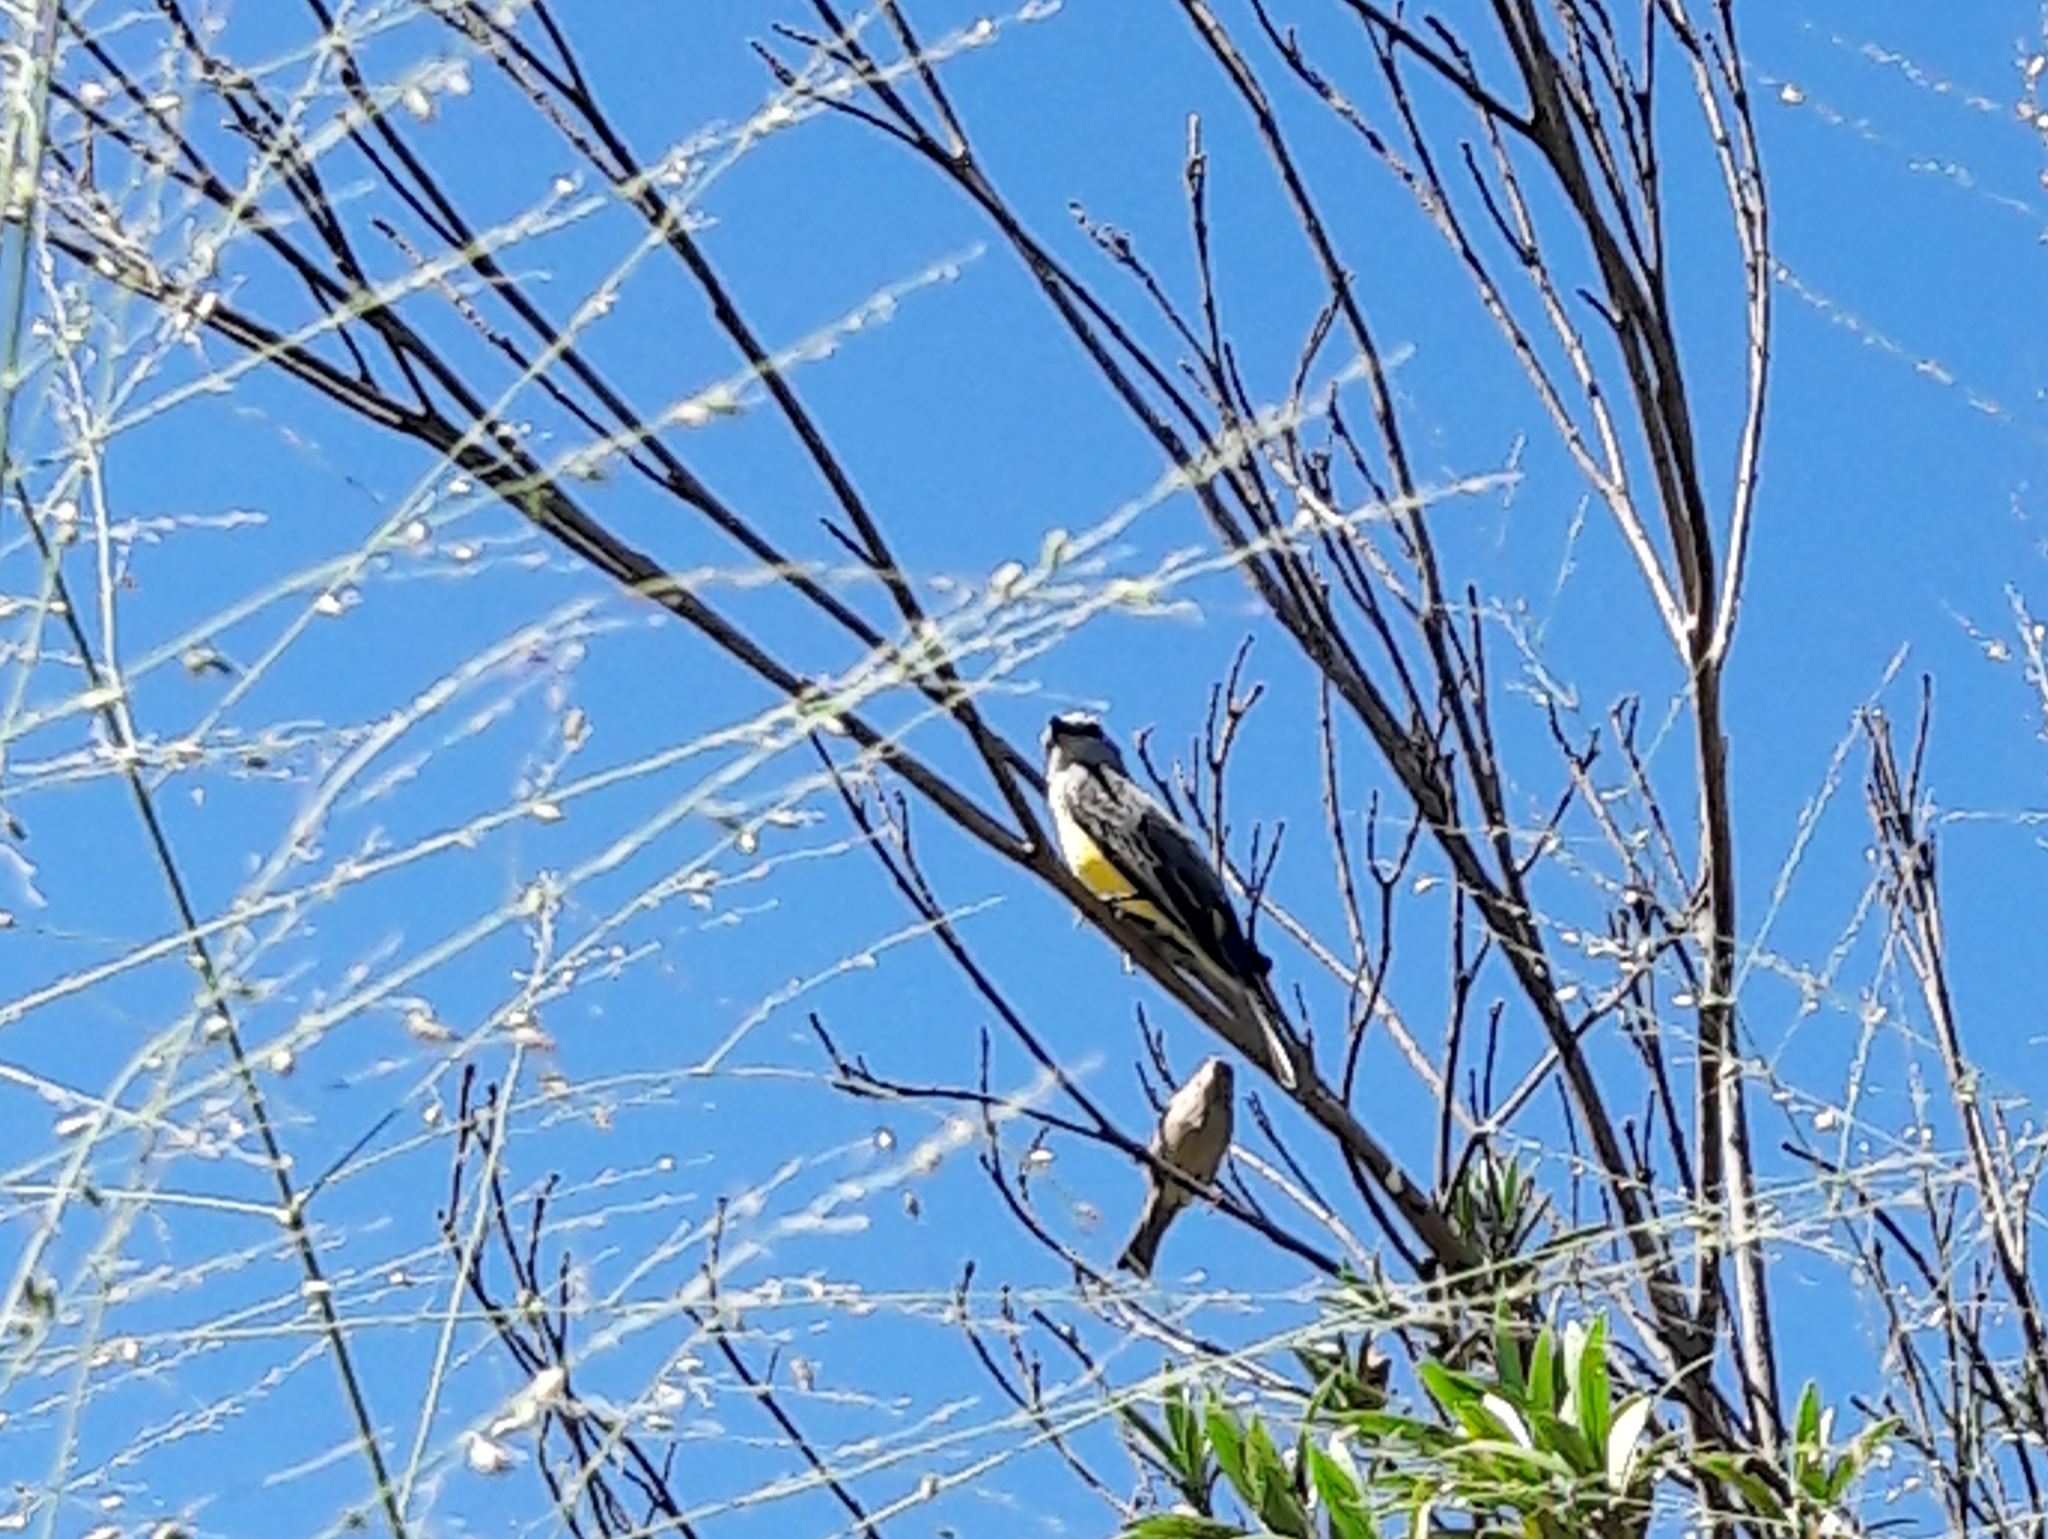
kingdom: Animalia
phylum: Chordata
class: Aves
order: Passeriformes
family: Tyrannidae
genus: Tyrannus
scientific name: Tyrannus melancholicus
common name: Tropical kingbird
